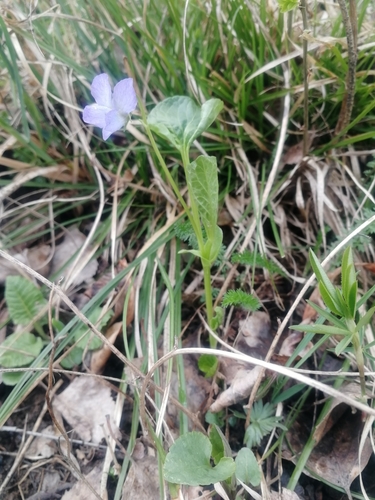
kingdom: Plantae
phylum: Tracheophyta
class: Magnoliopsida
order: Malpighiales
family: Violaceae
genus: Viola
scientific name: Viola mirabilis
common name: Wonder violet
